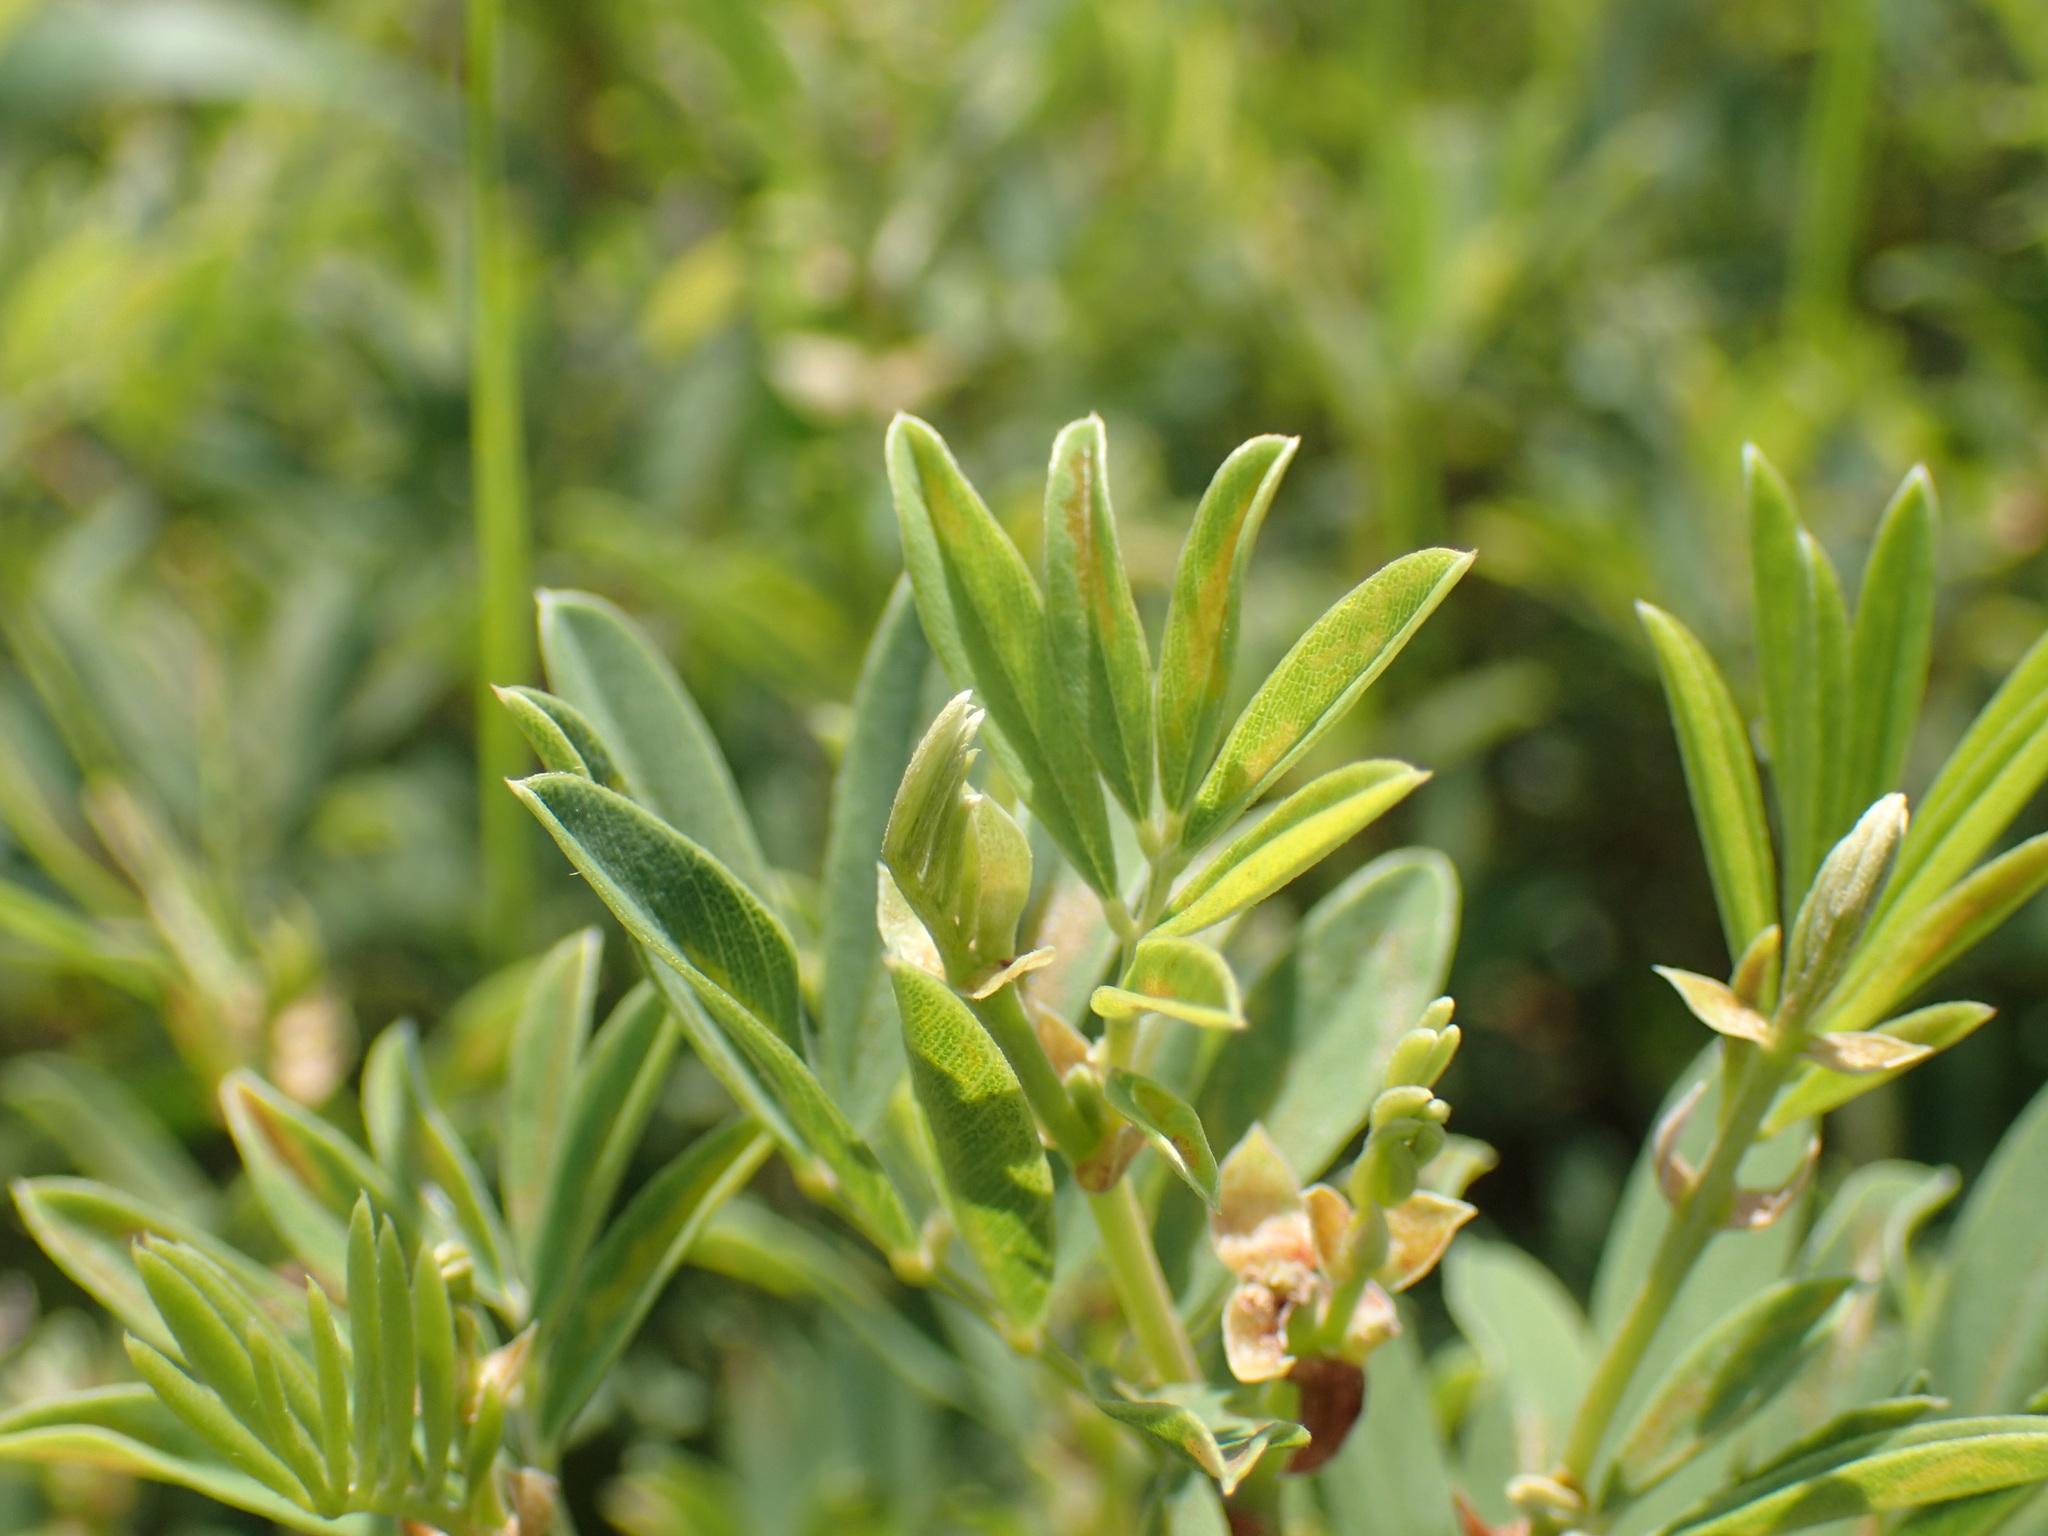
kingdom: Plantae
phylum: Tracheophyta
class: Magnoliopsida
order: Fabales
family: Fabaceae
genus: Tephrosia
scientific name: Tephrosia macropoda
